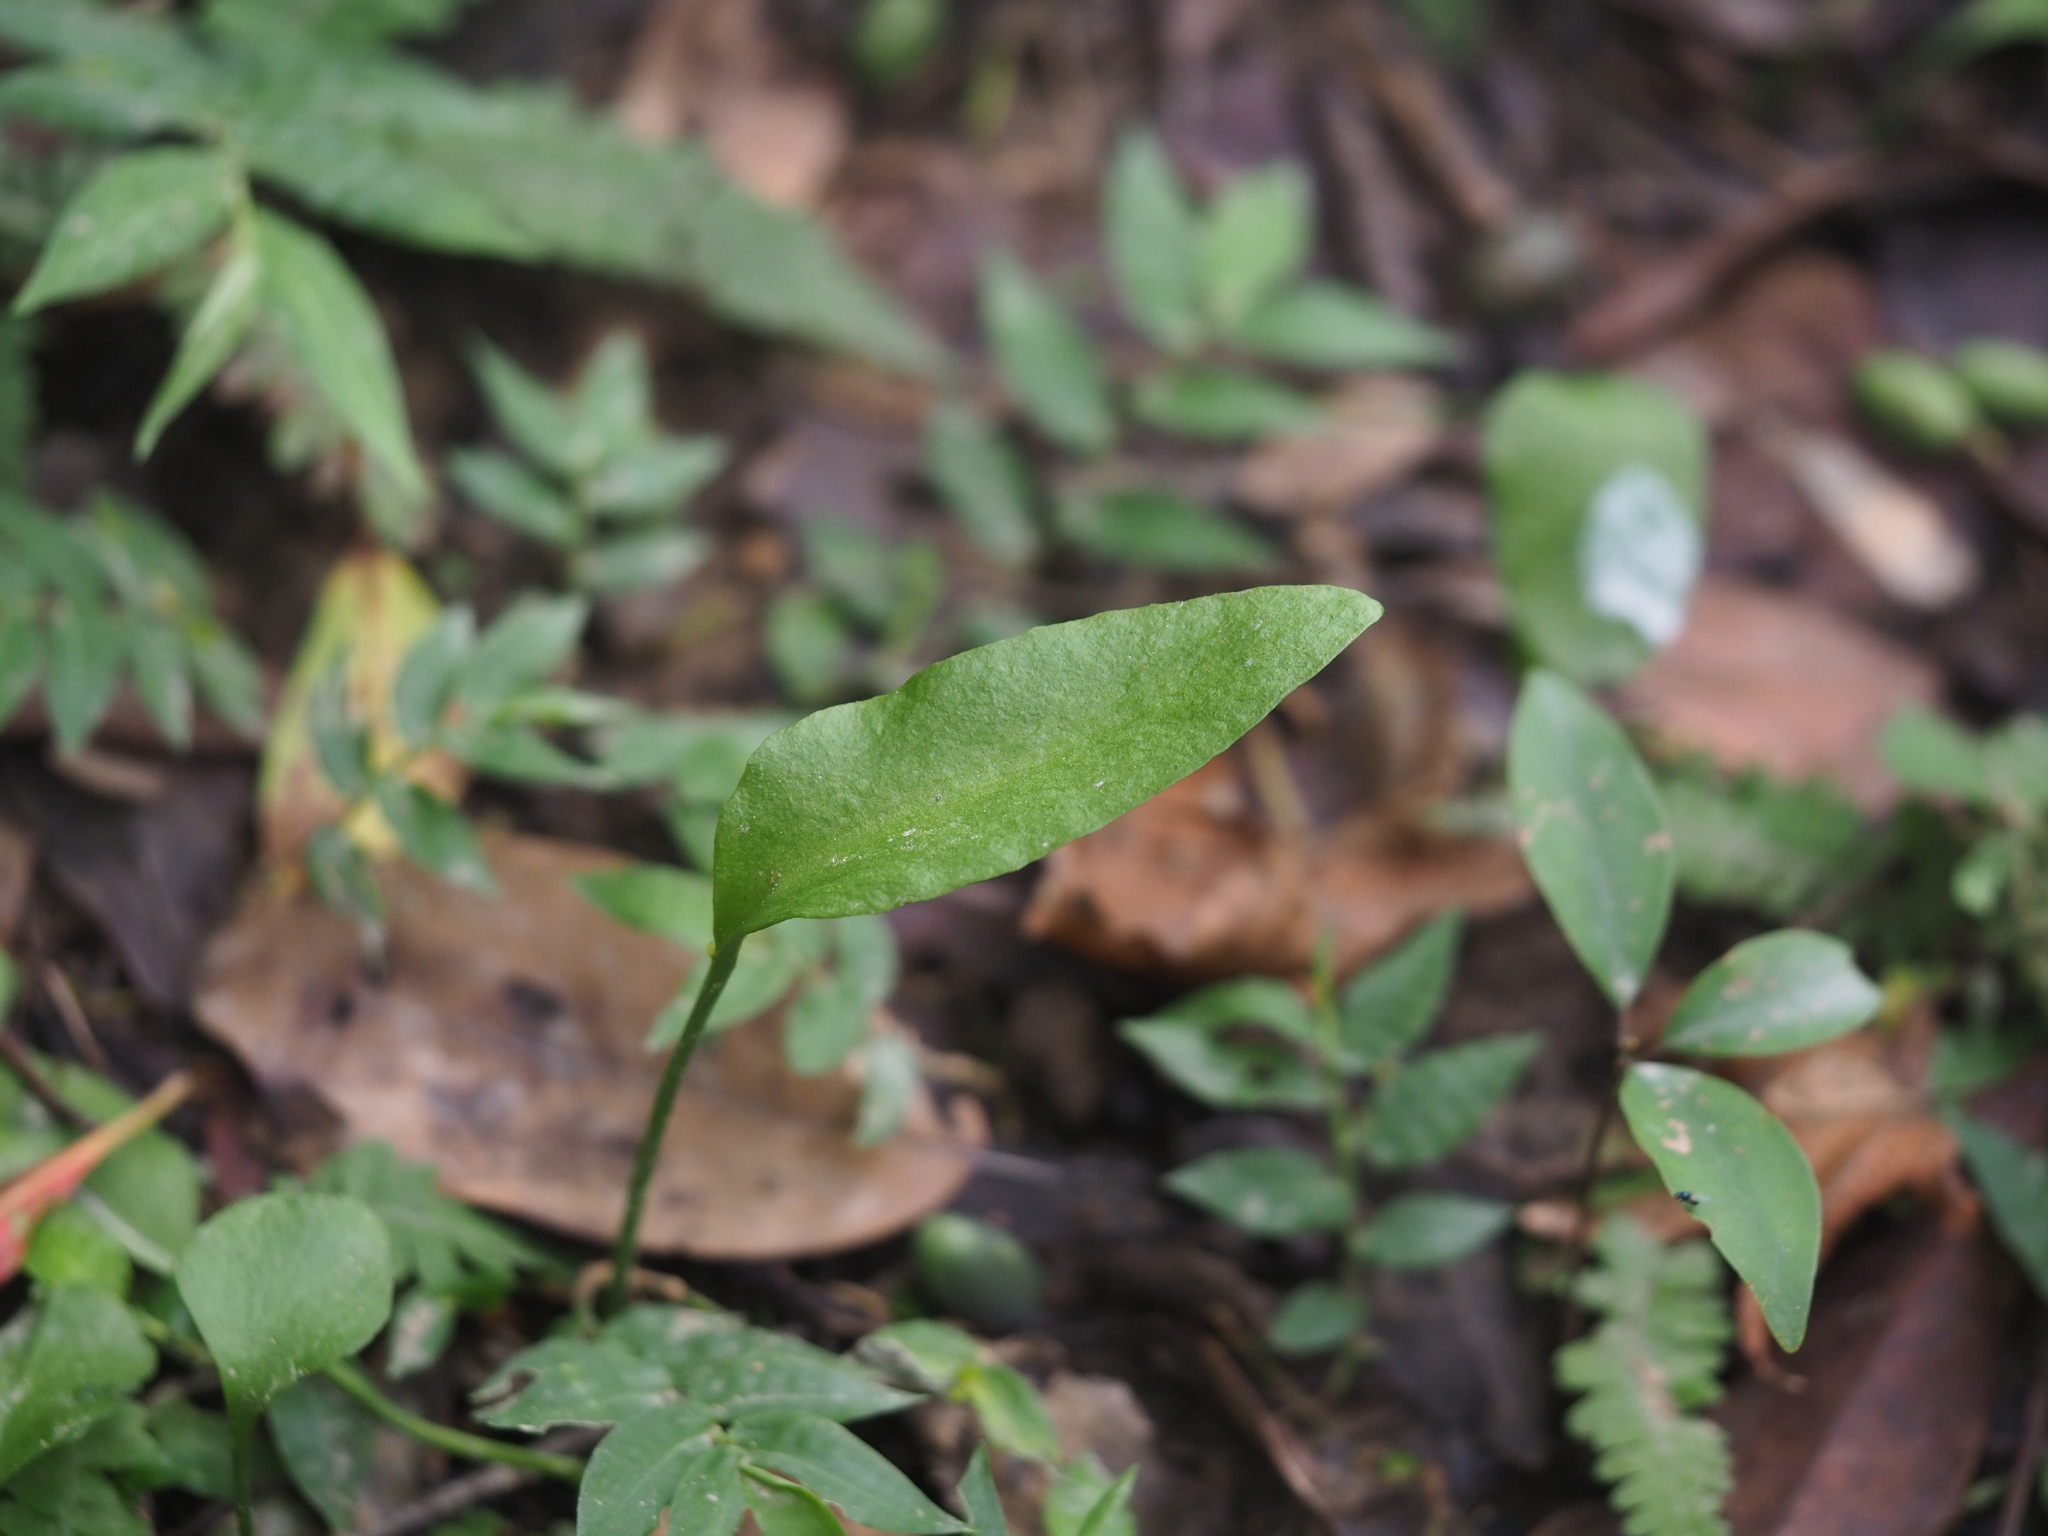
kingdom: Plantae
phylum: Tracheophyta
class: Polypodiopsida
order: Ophioglossales
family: Ophioglossaceae
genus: Ophioglossum
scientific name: Ophioglossum petiolatum
